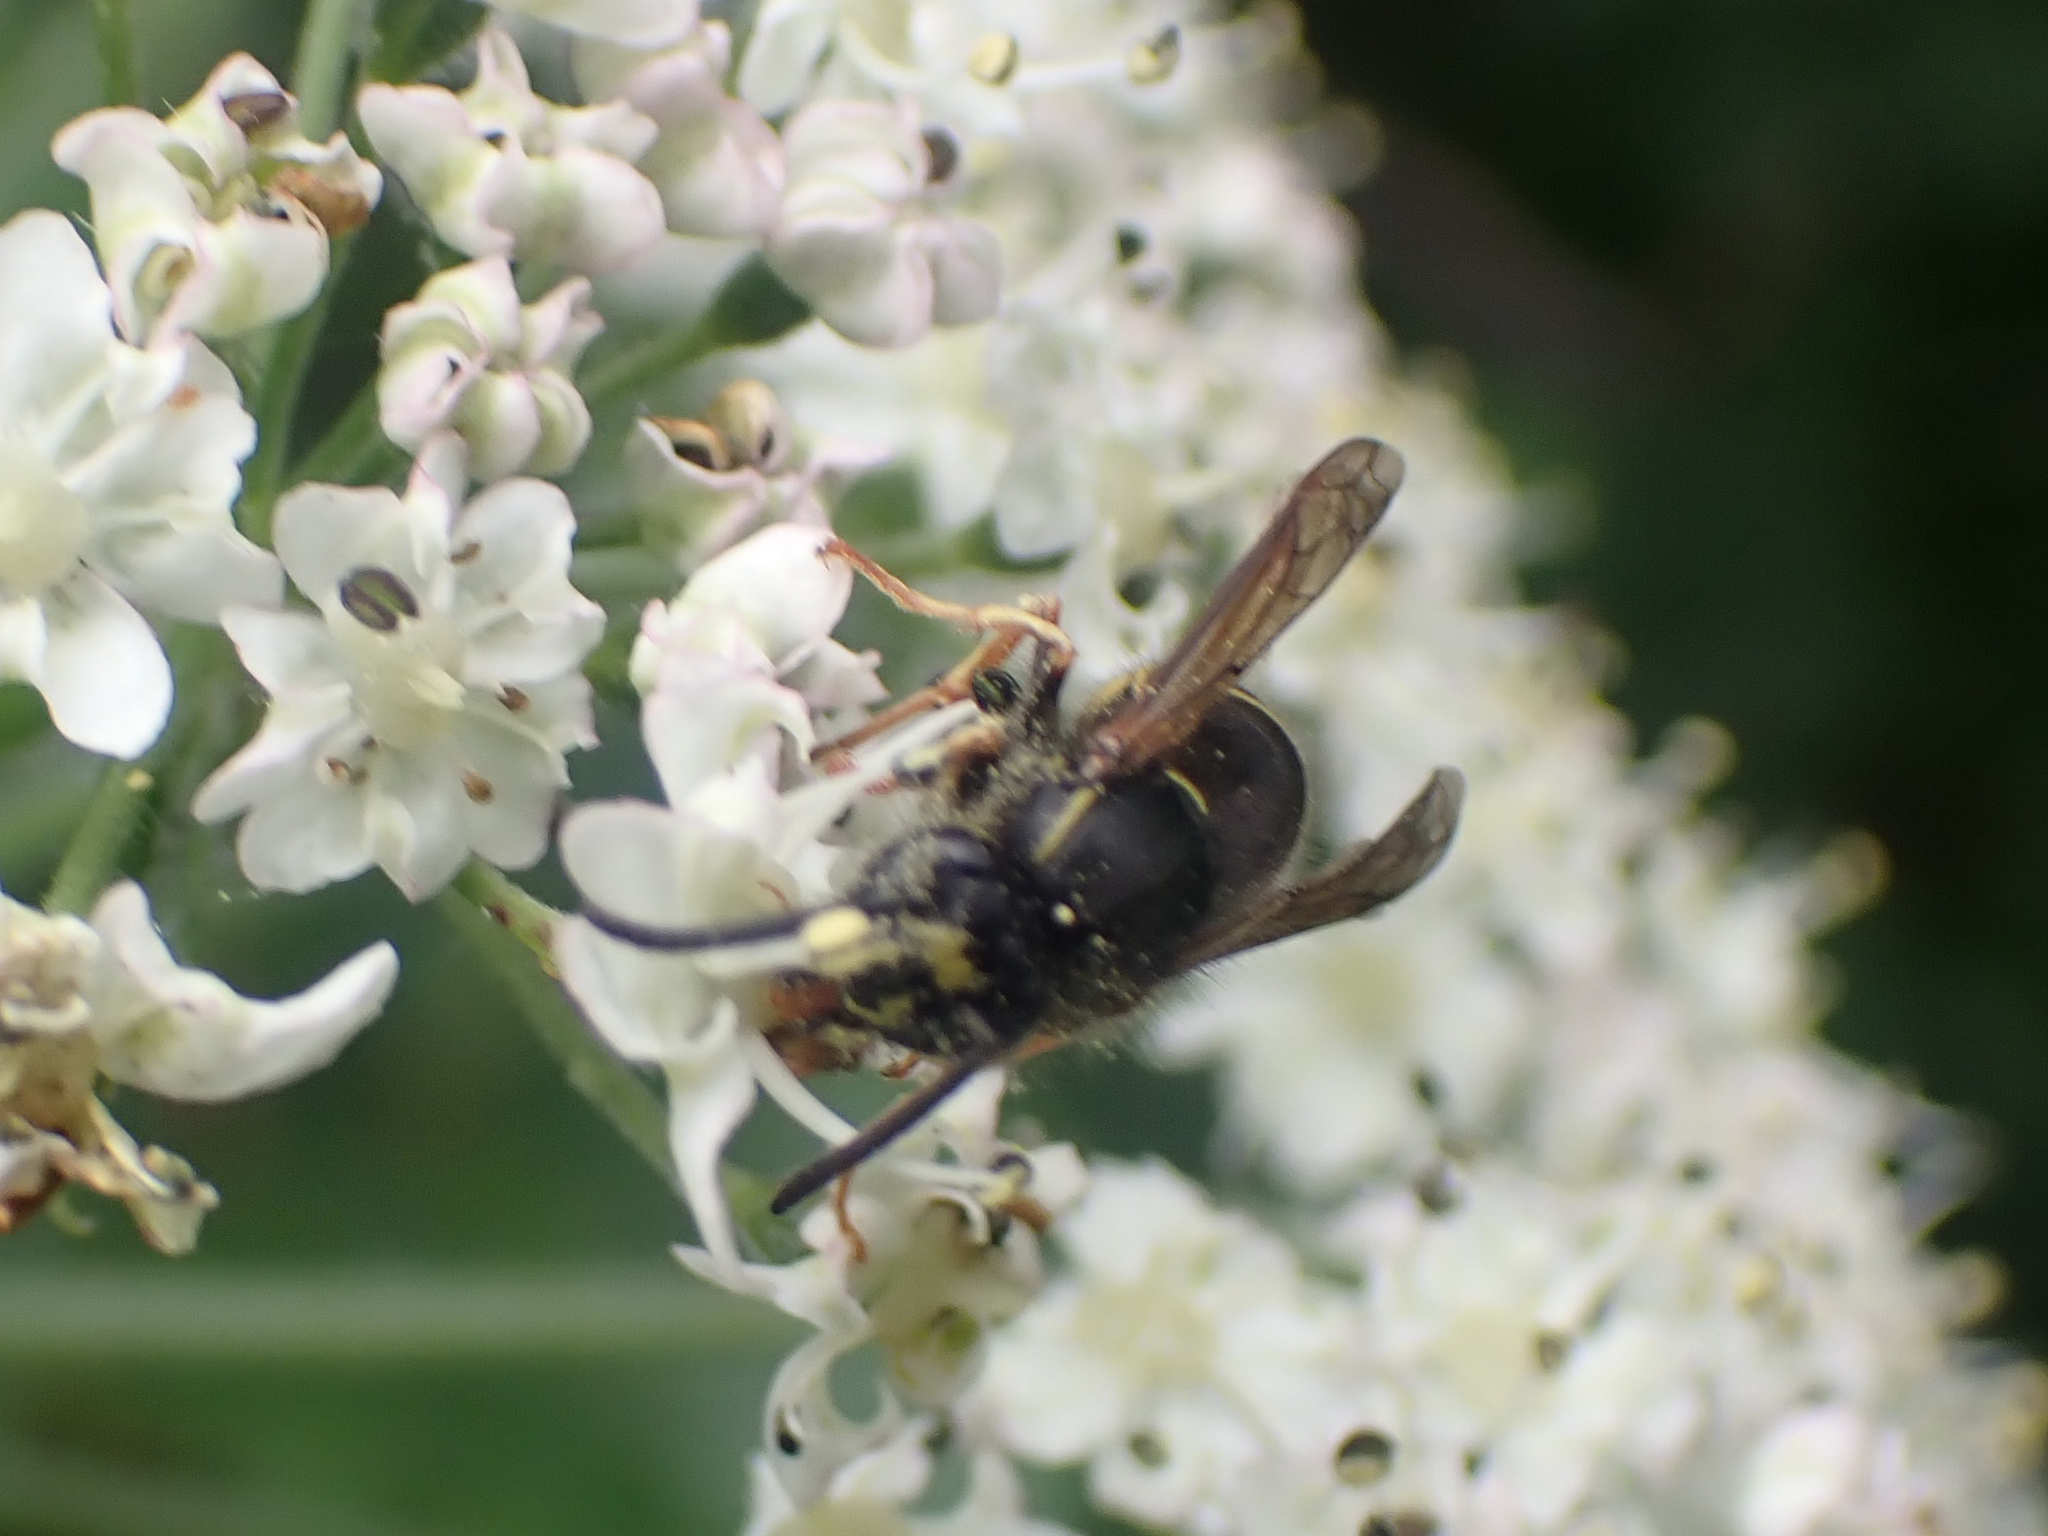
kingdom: Animalia
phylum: Arthropoda
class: Insecta
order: Hymenoptera
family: Vespidae
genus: Dolichovespula
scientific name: Dolichovespula
